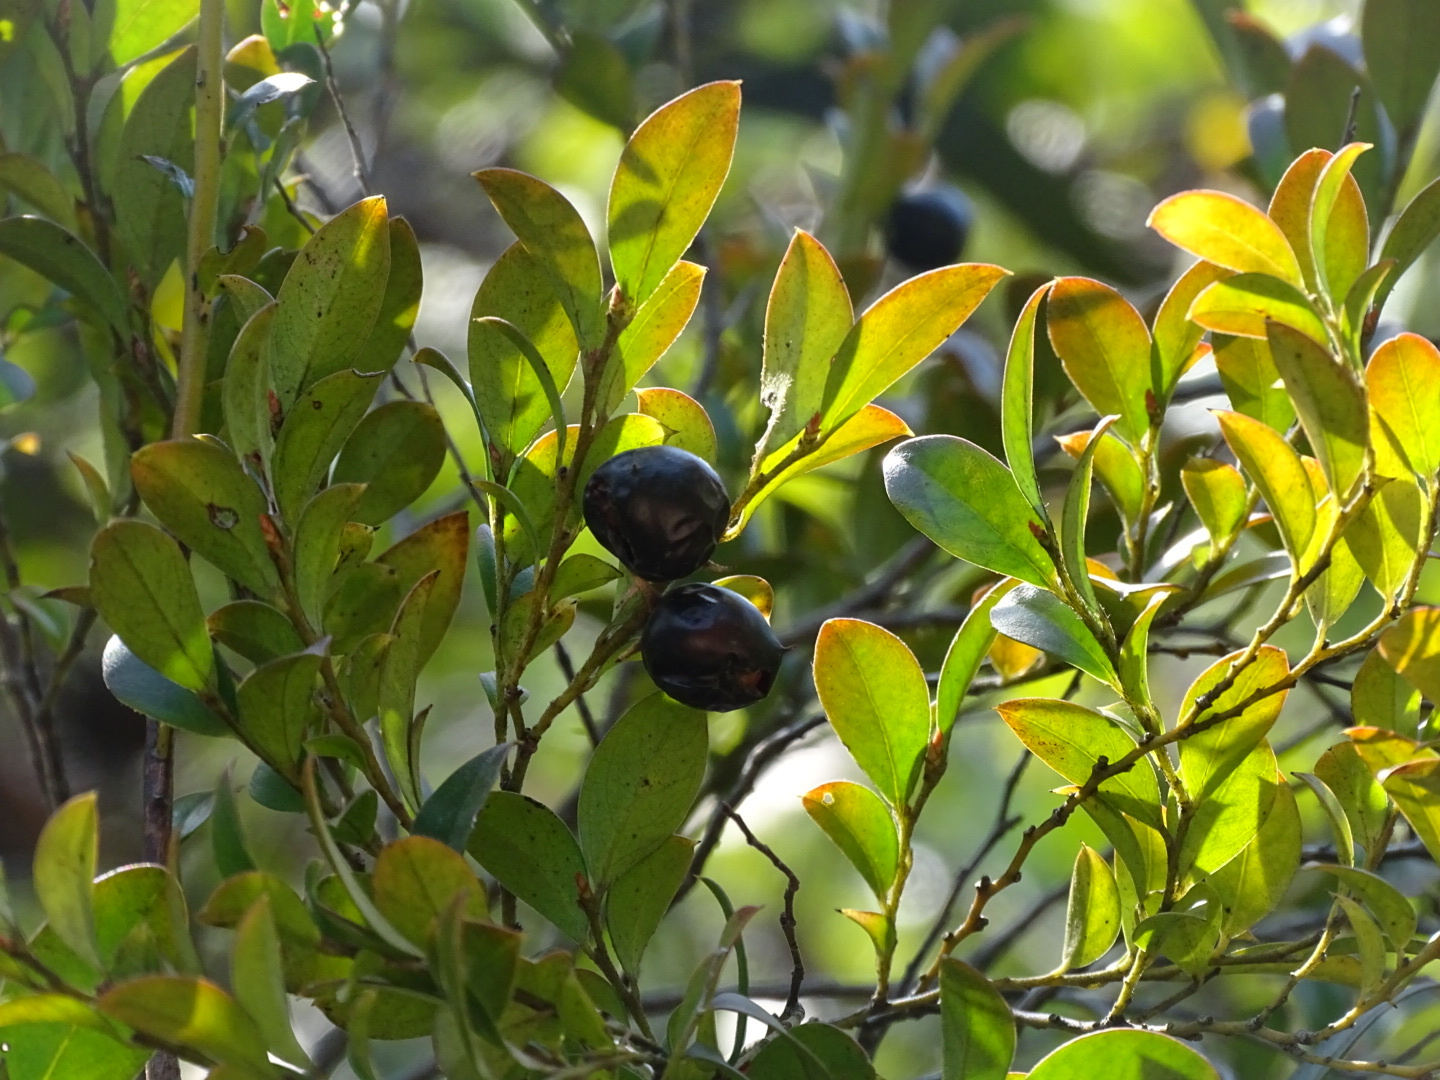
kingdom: Plantae
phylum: Tracheophyta
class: Magnoliopsida
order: Ericales
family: Ebenaceae
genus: Diospyros
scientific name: Diospyros vaccinioides
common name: Small persimmon
